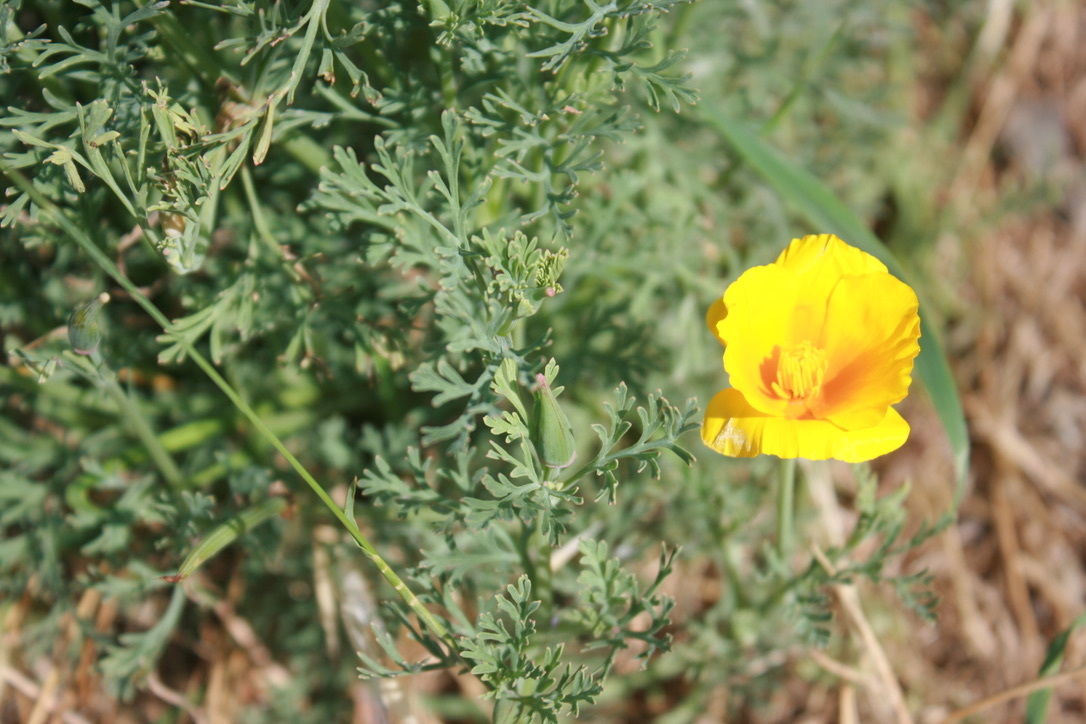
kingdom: Plantae
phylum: Tracheophyta
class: Magnoliopsida
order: Ranunculales
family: Papaveraceae
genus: Eschscholzia
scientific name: Eschscholzia californica
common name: California poppy
